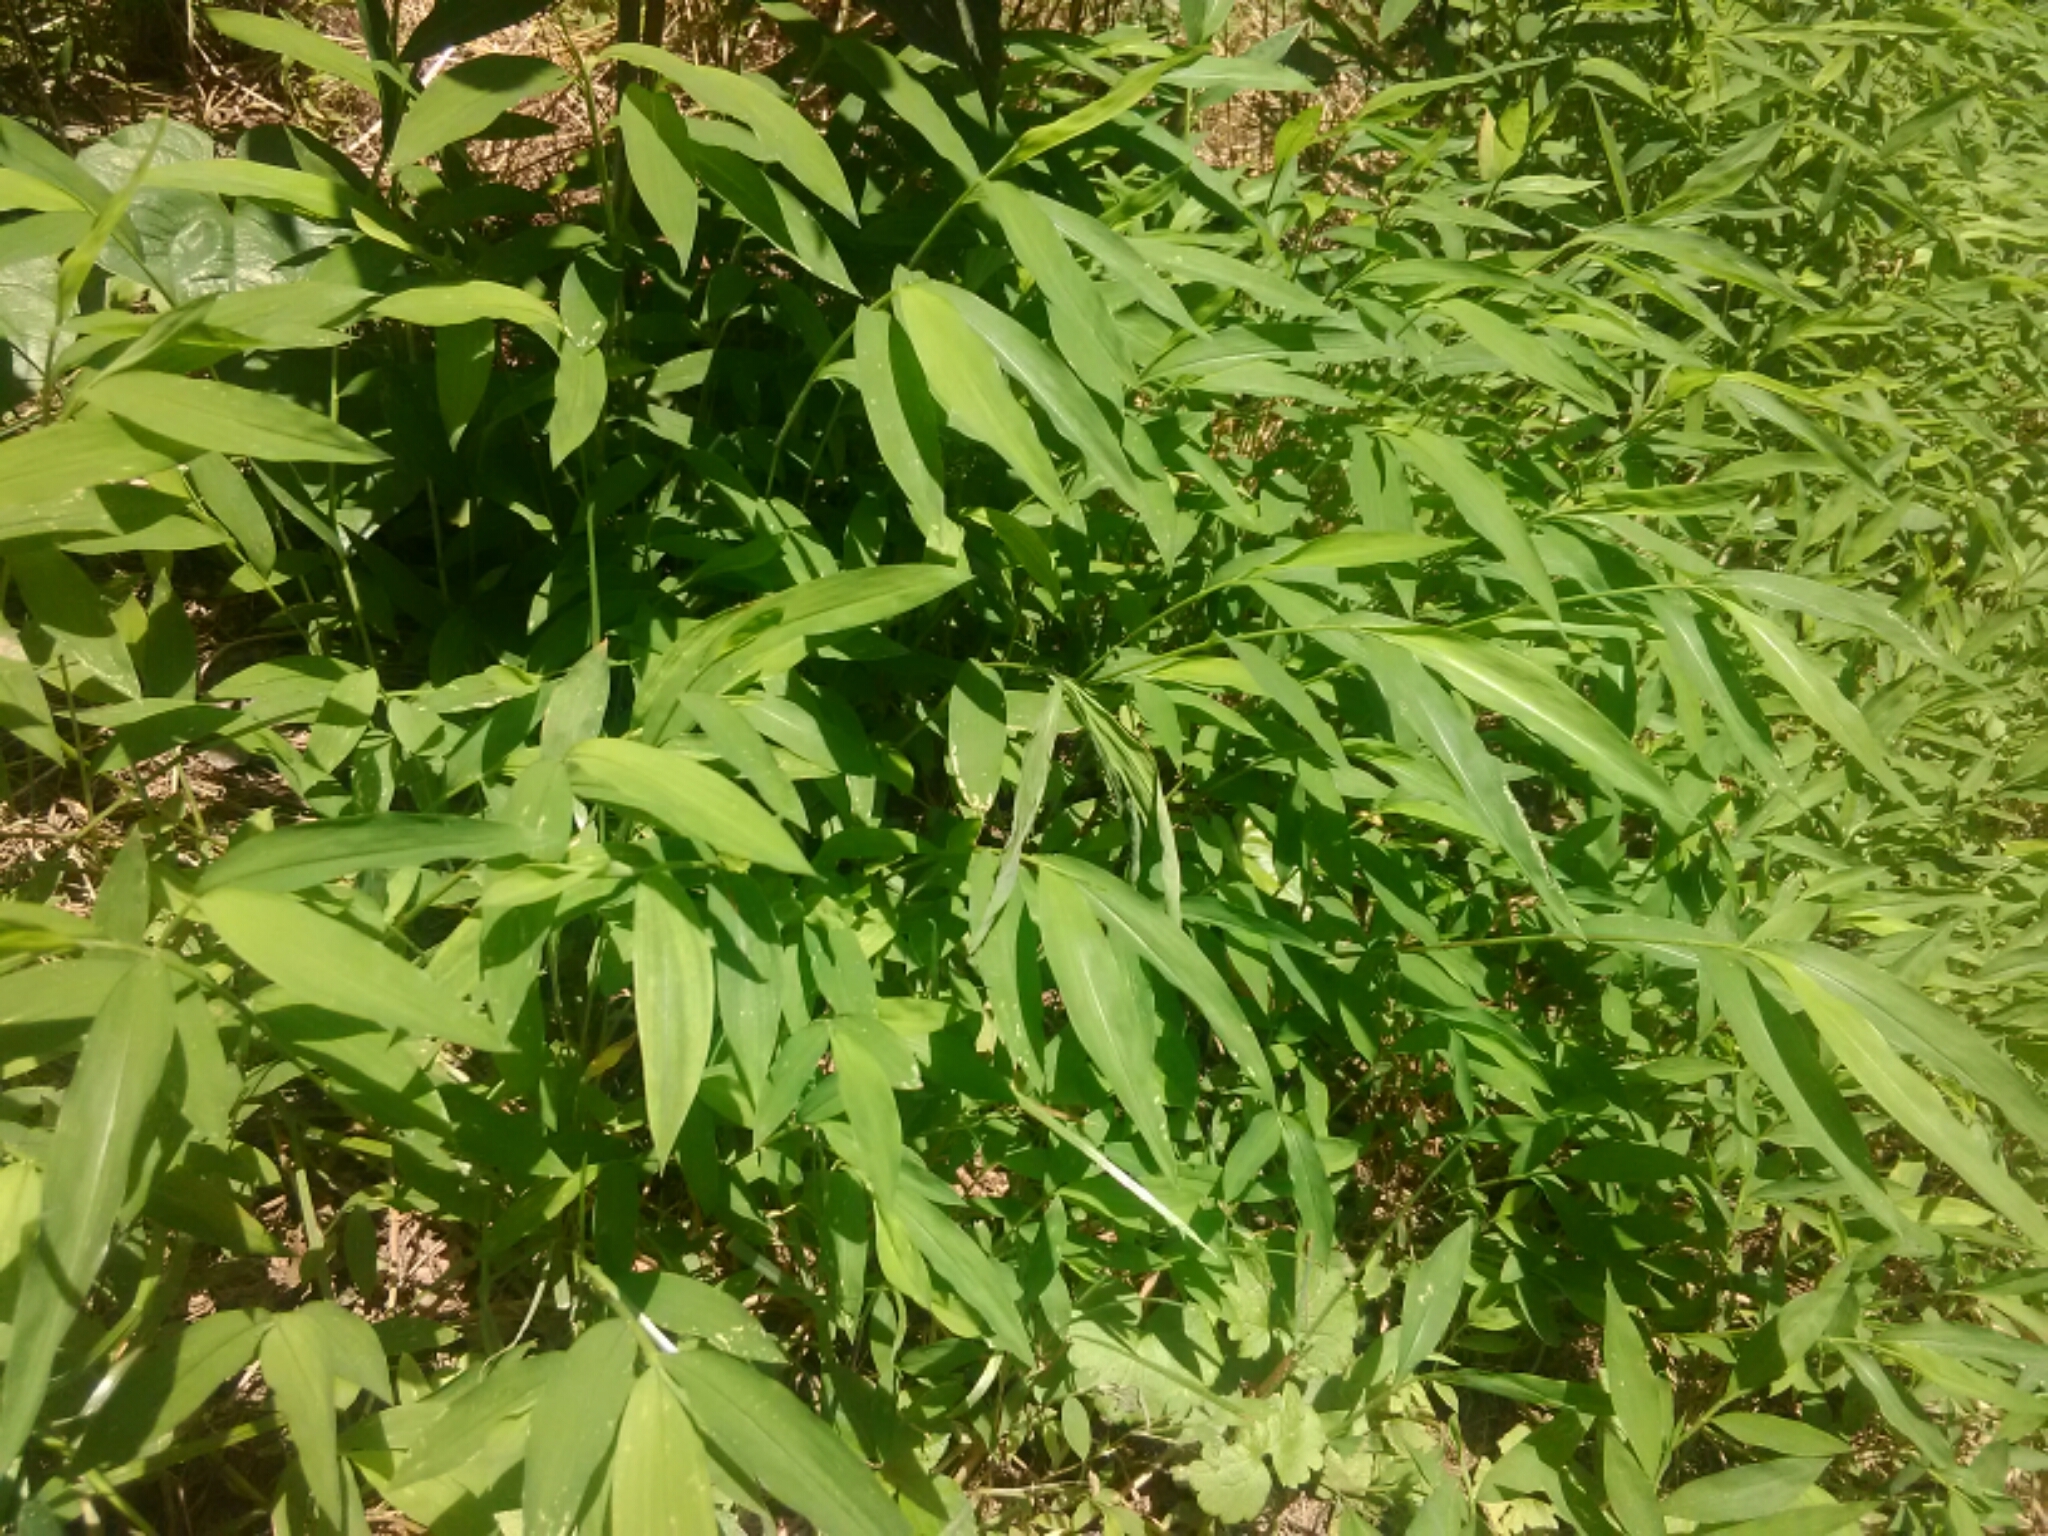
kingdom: Plantae
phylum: Tracheophyta
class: Liliopsida
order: Poales
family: Poaceae
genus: Microstegium
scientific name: Microstegium vimineum
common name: Japanese stiltgrass
